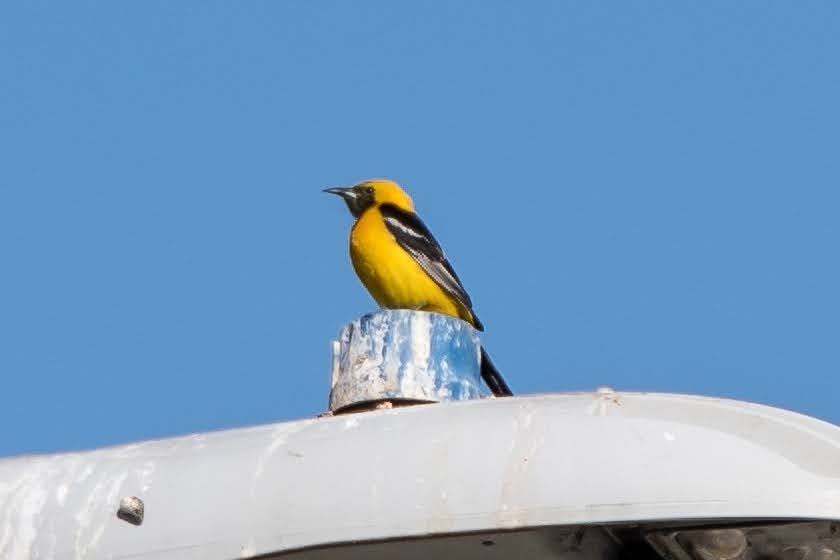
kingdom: Animalia
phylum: Chordata
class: Aves
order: Passeriformes
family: Icteridae
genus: Icterus
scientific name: Icterus cucullatus
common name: Hooded oriole
